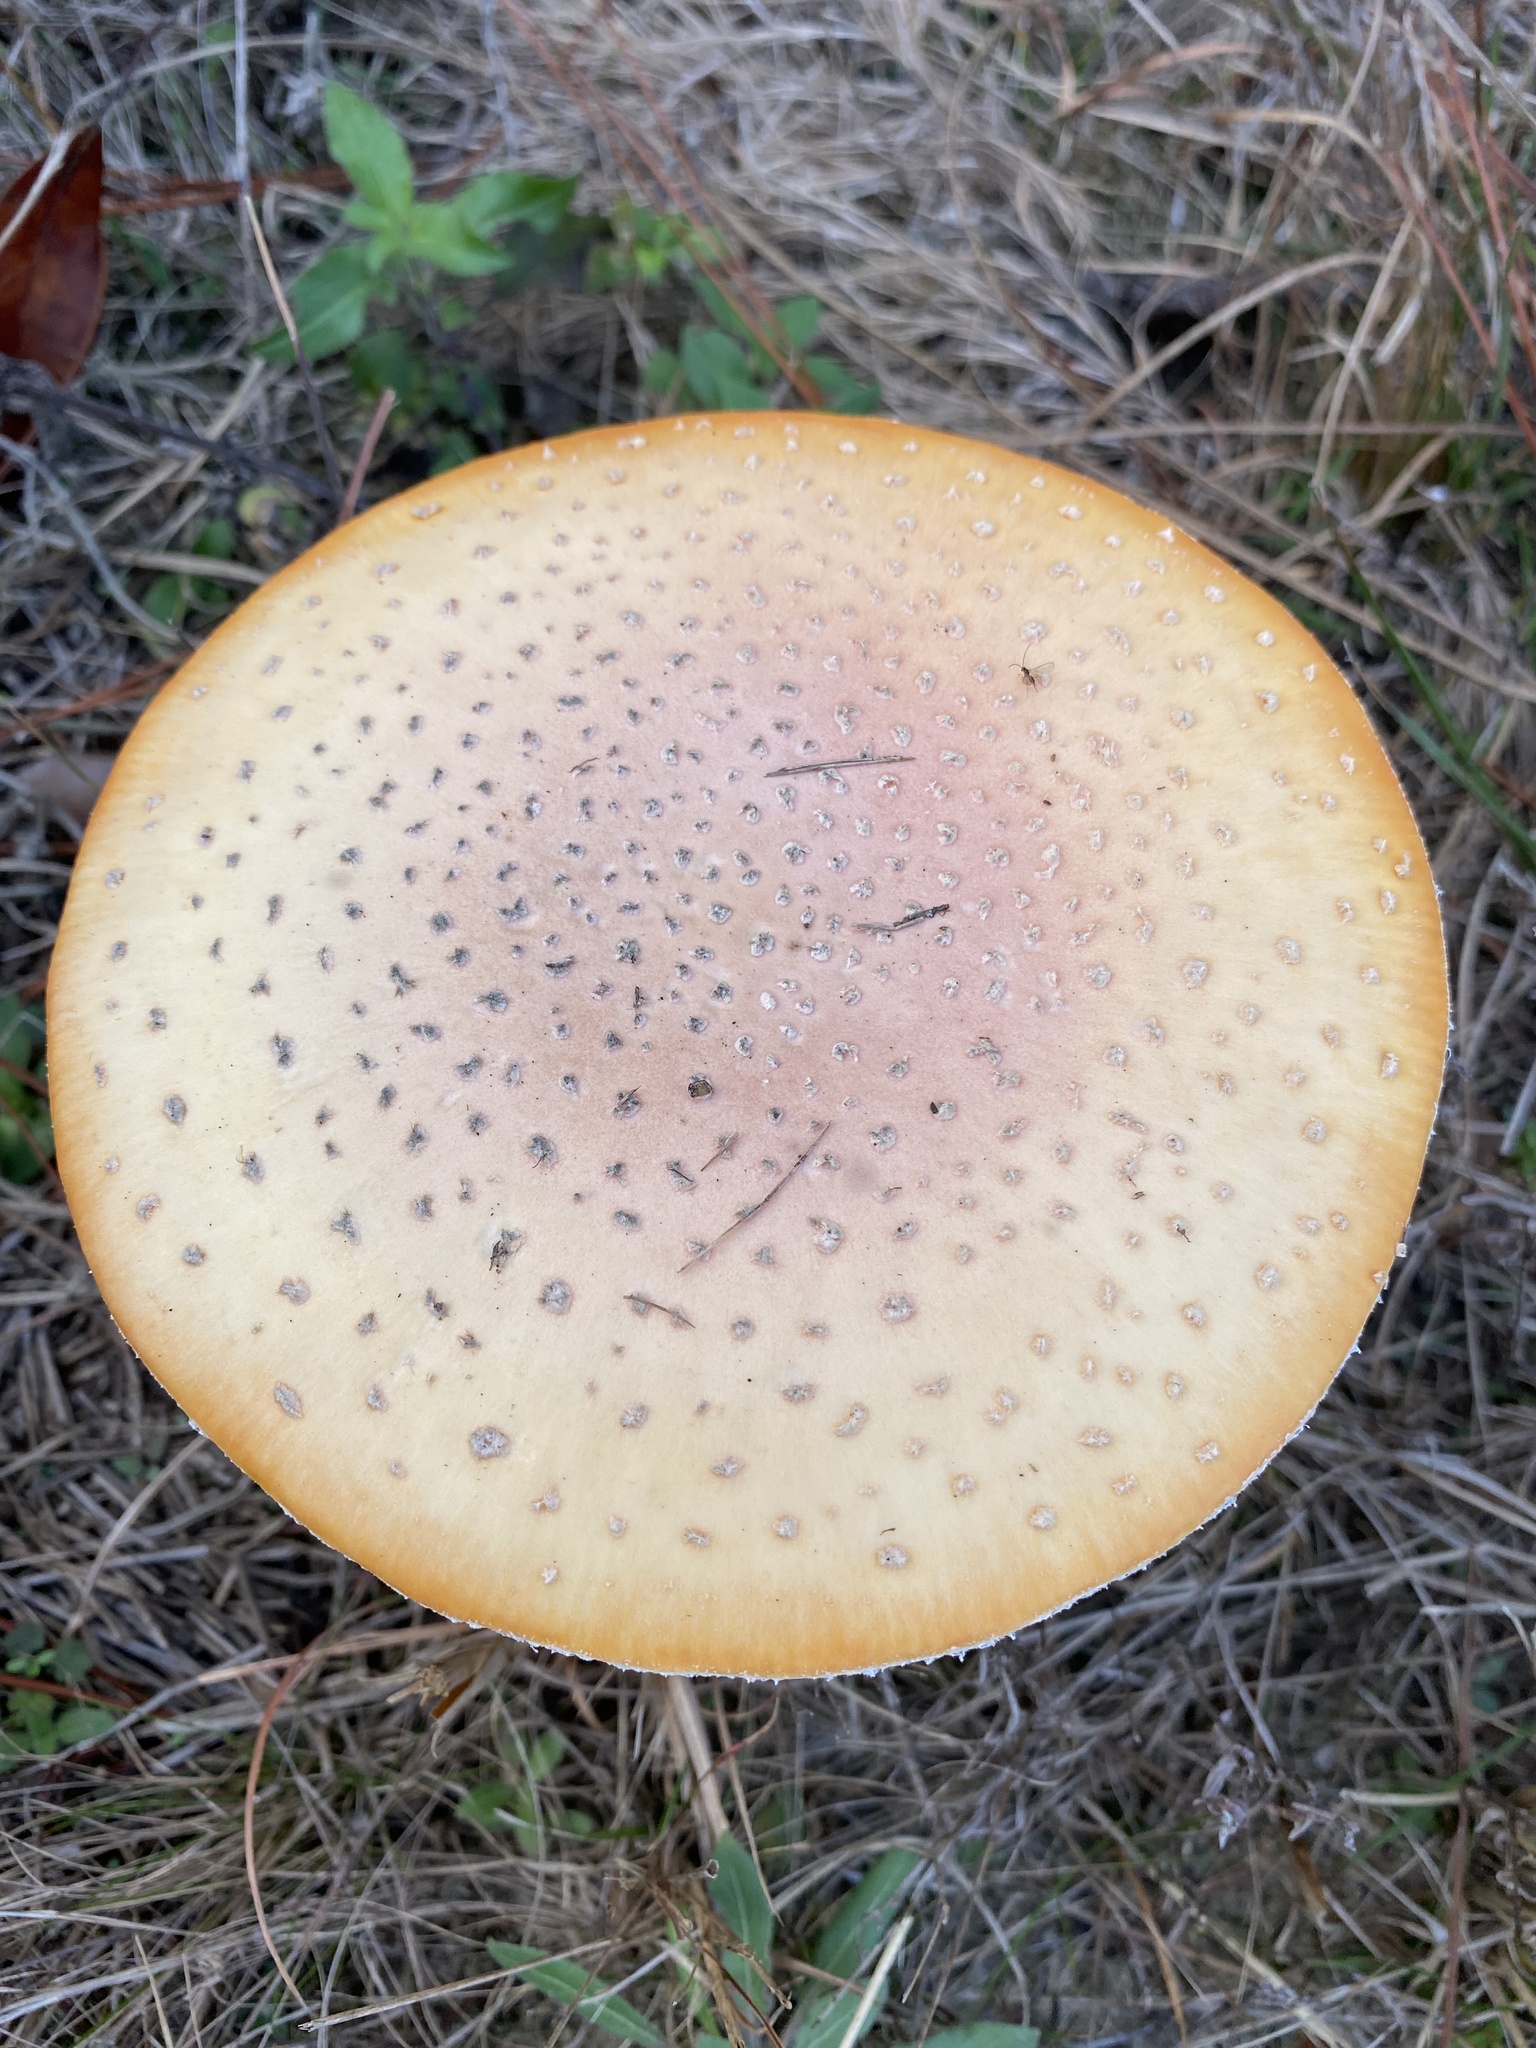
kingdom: Fungi
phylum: Basidiomycota
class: Agaricomycetes
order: Agaricales
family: Amanitaceae
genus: Amanita
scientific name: Amanita persicina
